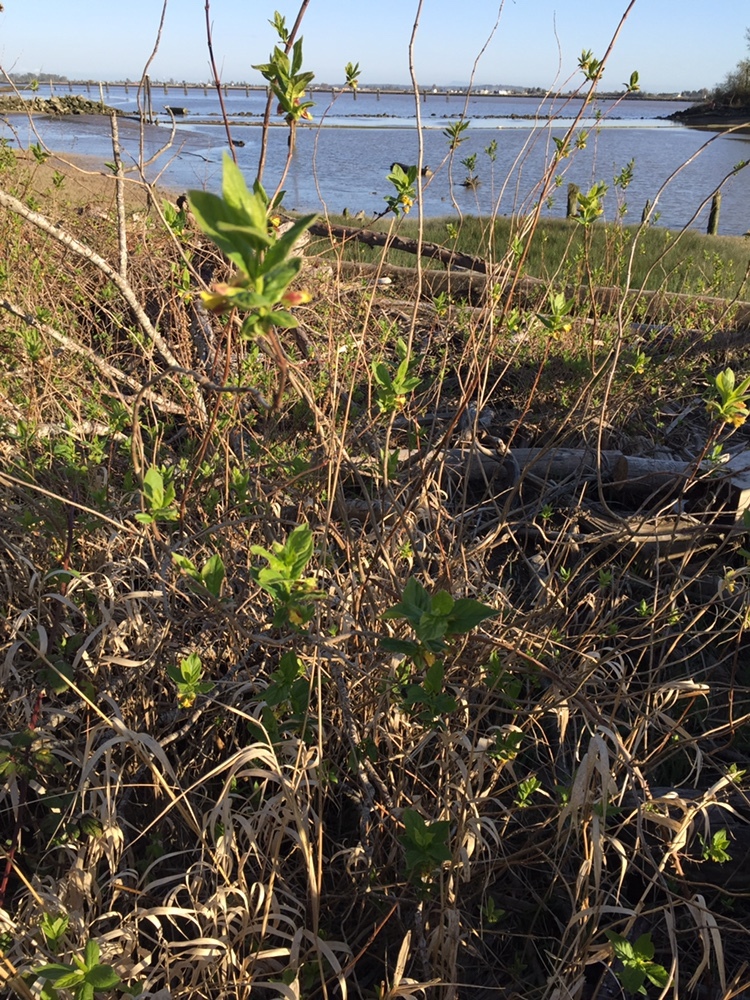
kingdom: Plantae
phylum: Tracheophyta
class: Magnoliopsida
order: Dipsacales
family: Caprifoliaceae
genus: Lonicera
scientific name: Lonicera involucrata
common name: Californian honeysuckle
